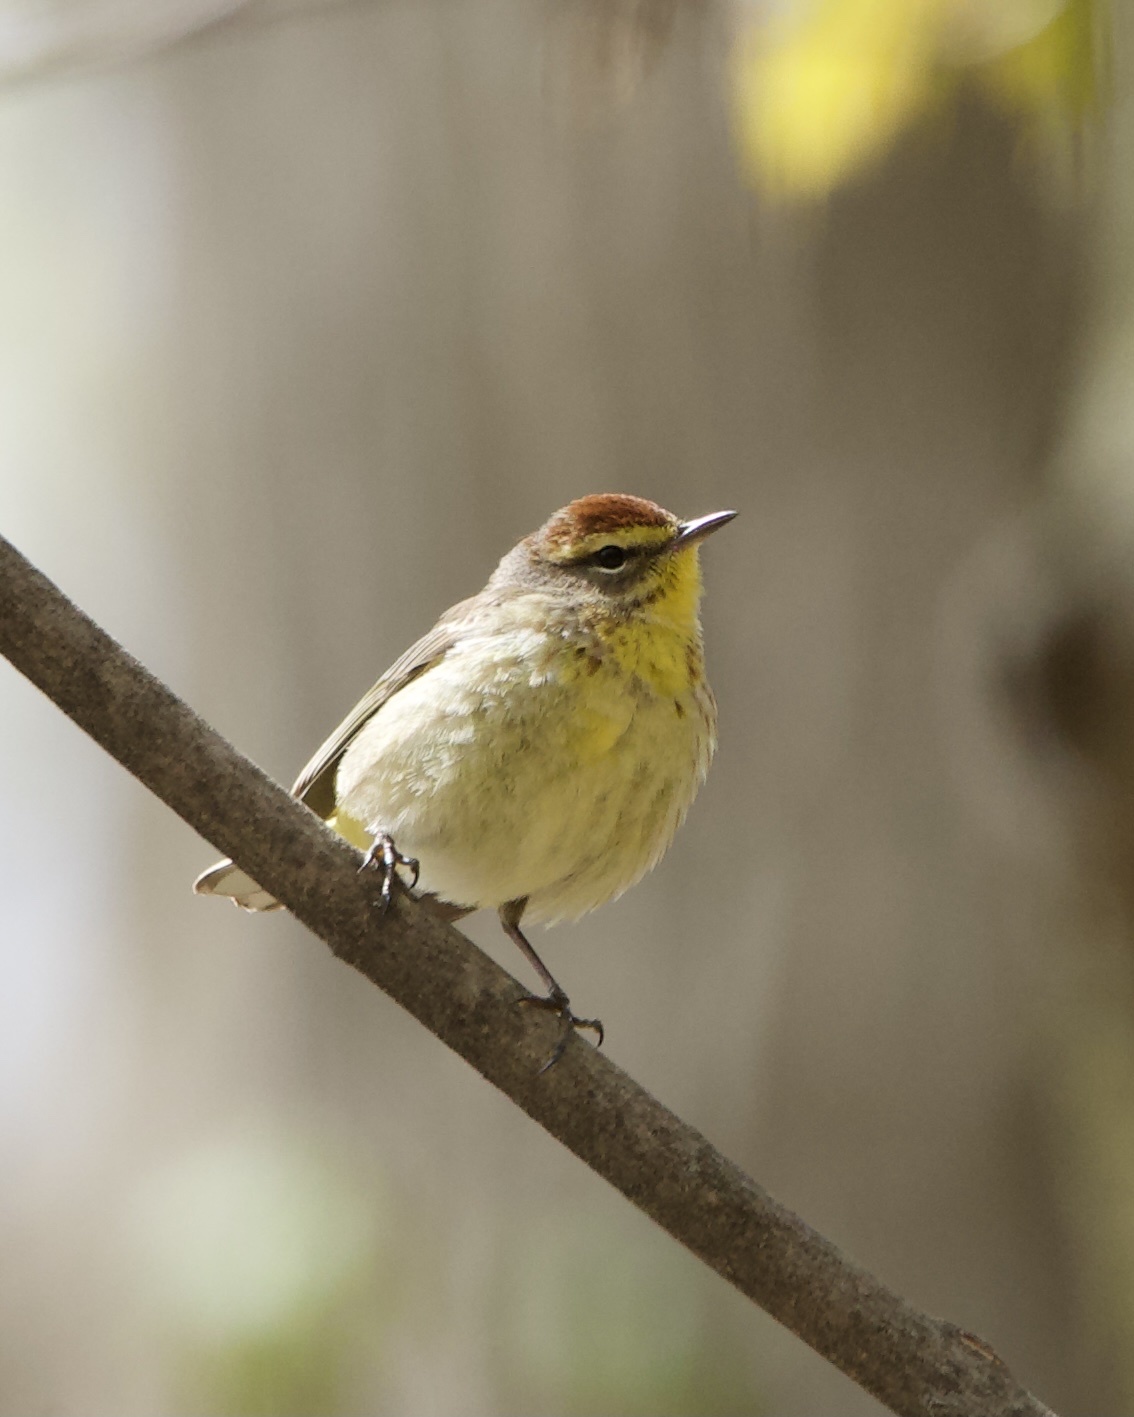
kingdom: Animalia
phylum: Chordata
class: Aves
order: Passeriformes
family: Parulidae
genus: Setophaga
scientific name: Setophaga palmarum
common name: Palm warbler
